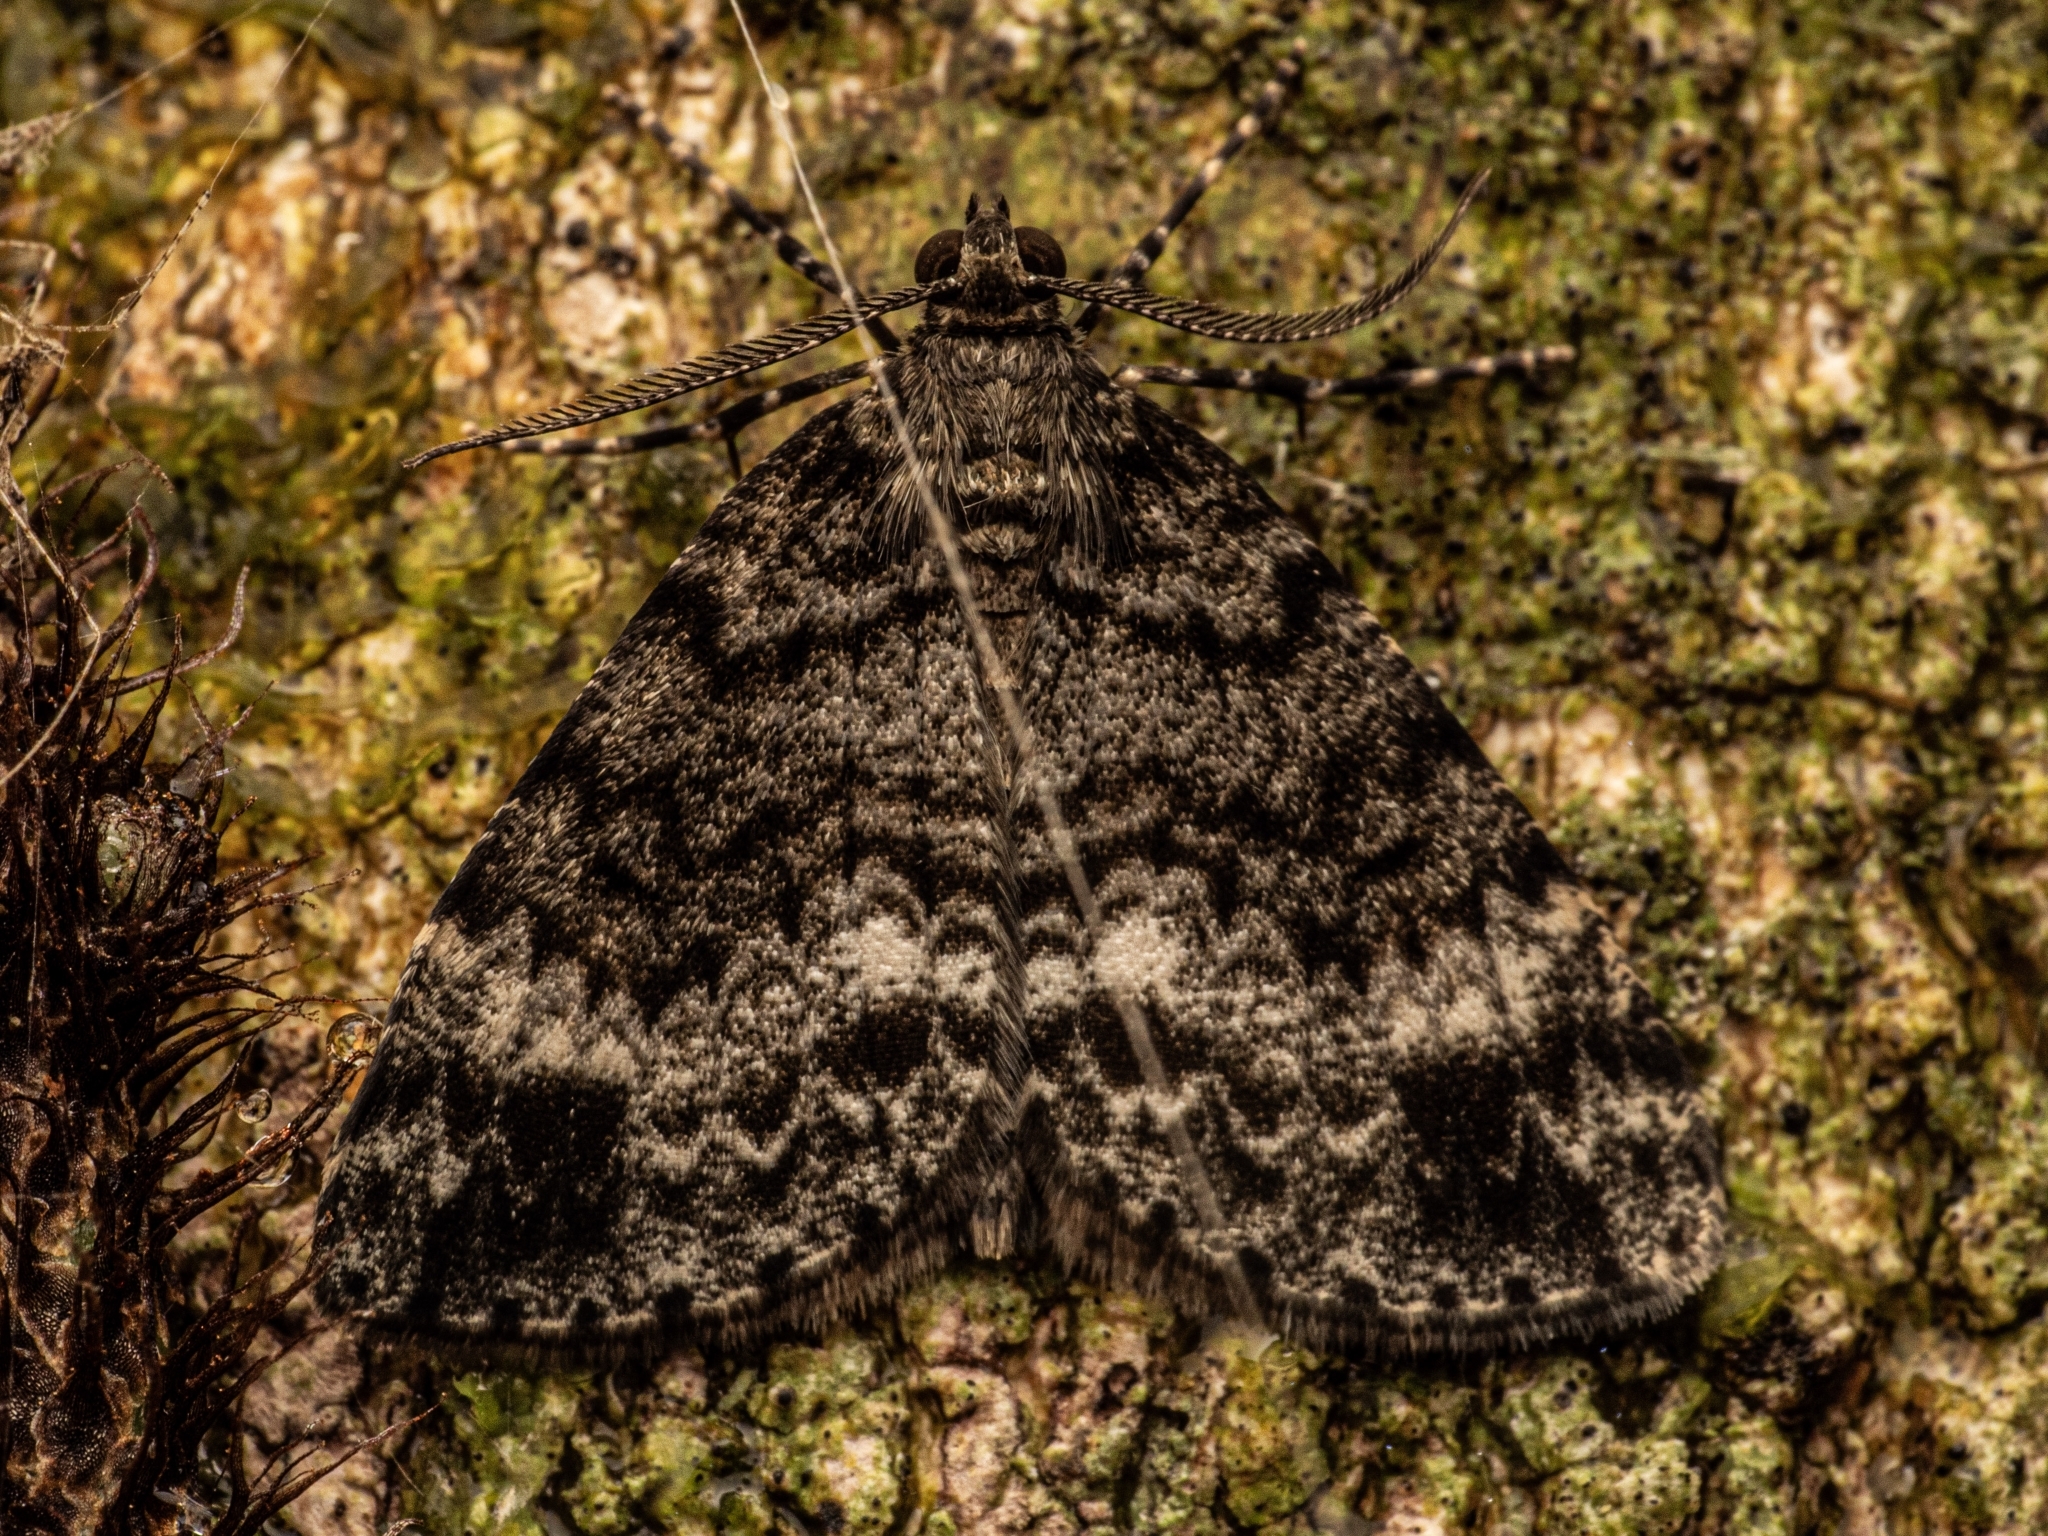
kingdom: Animalia
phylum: Arthropoda
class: Insecta
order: Lepidoptera
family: Geometridae
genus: Pseudocoremia
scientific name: Pseudocoremia indistincta
